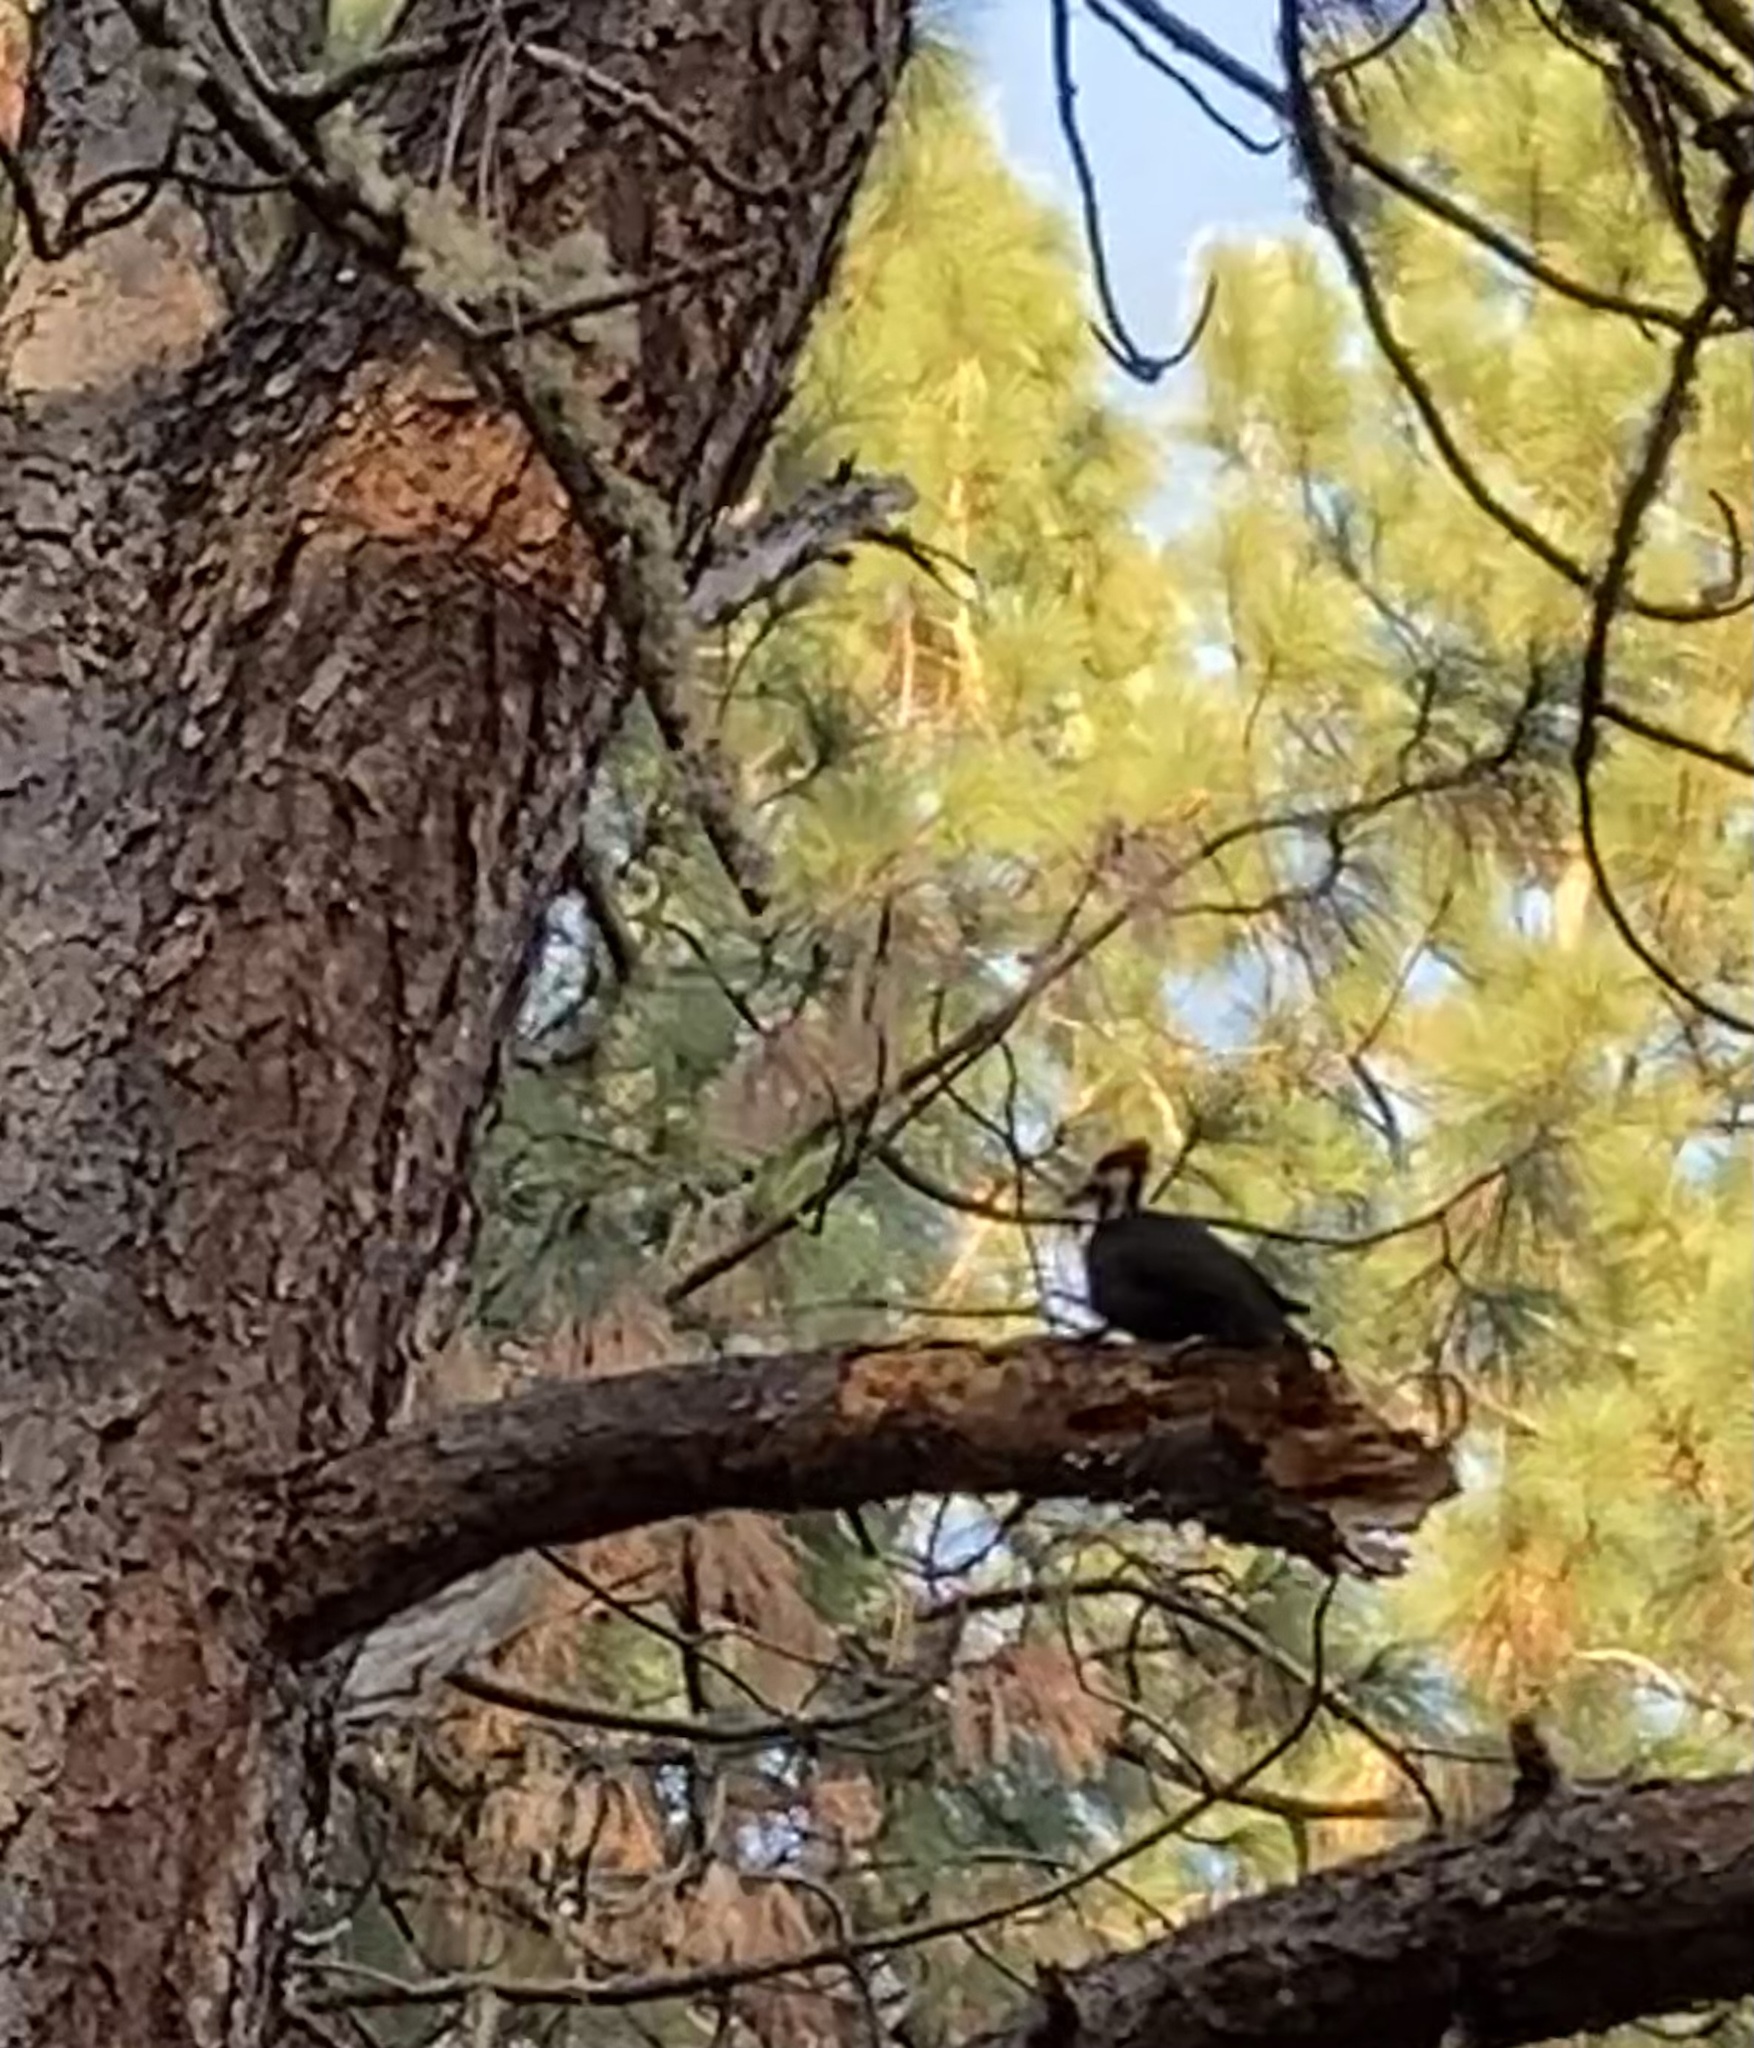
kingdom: Animalia
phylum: Chordata
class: Aves
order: Piciformes
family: Picidae
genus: Dryocopus
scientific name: Dryocopus pileatus
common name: Pileated woodpecker
